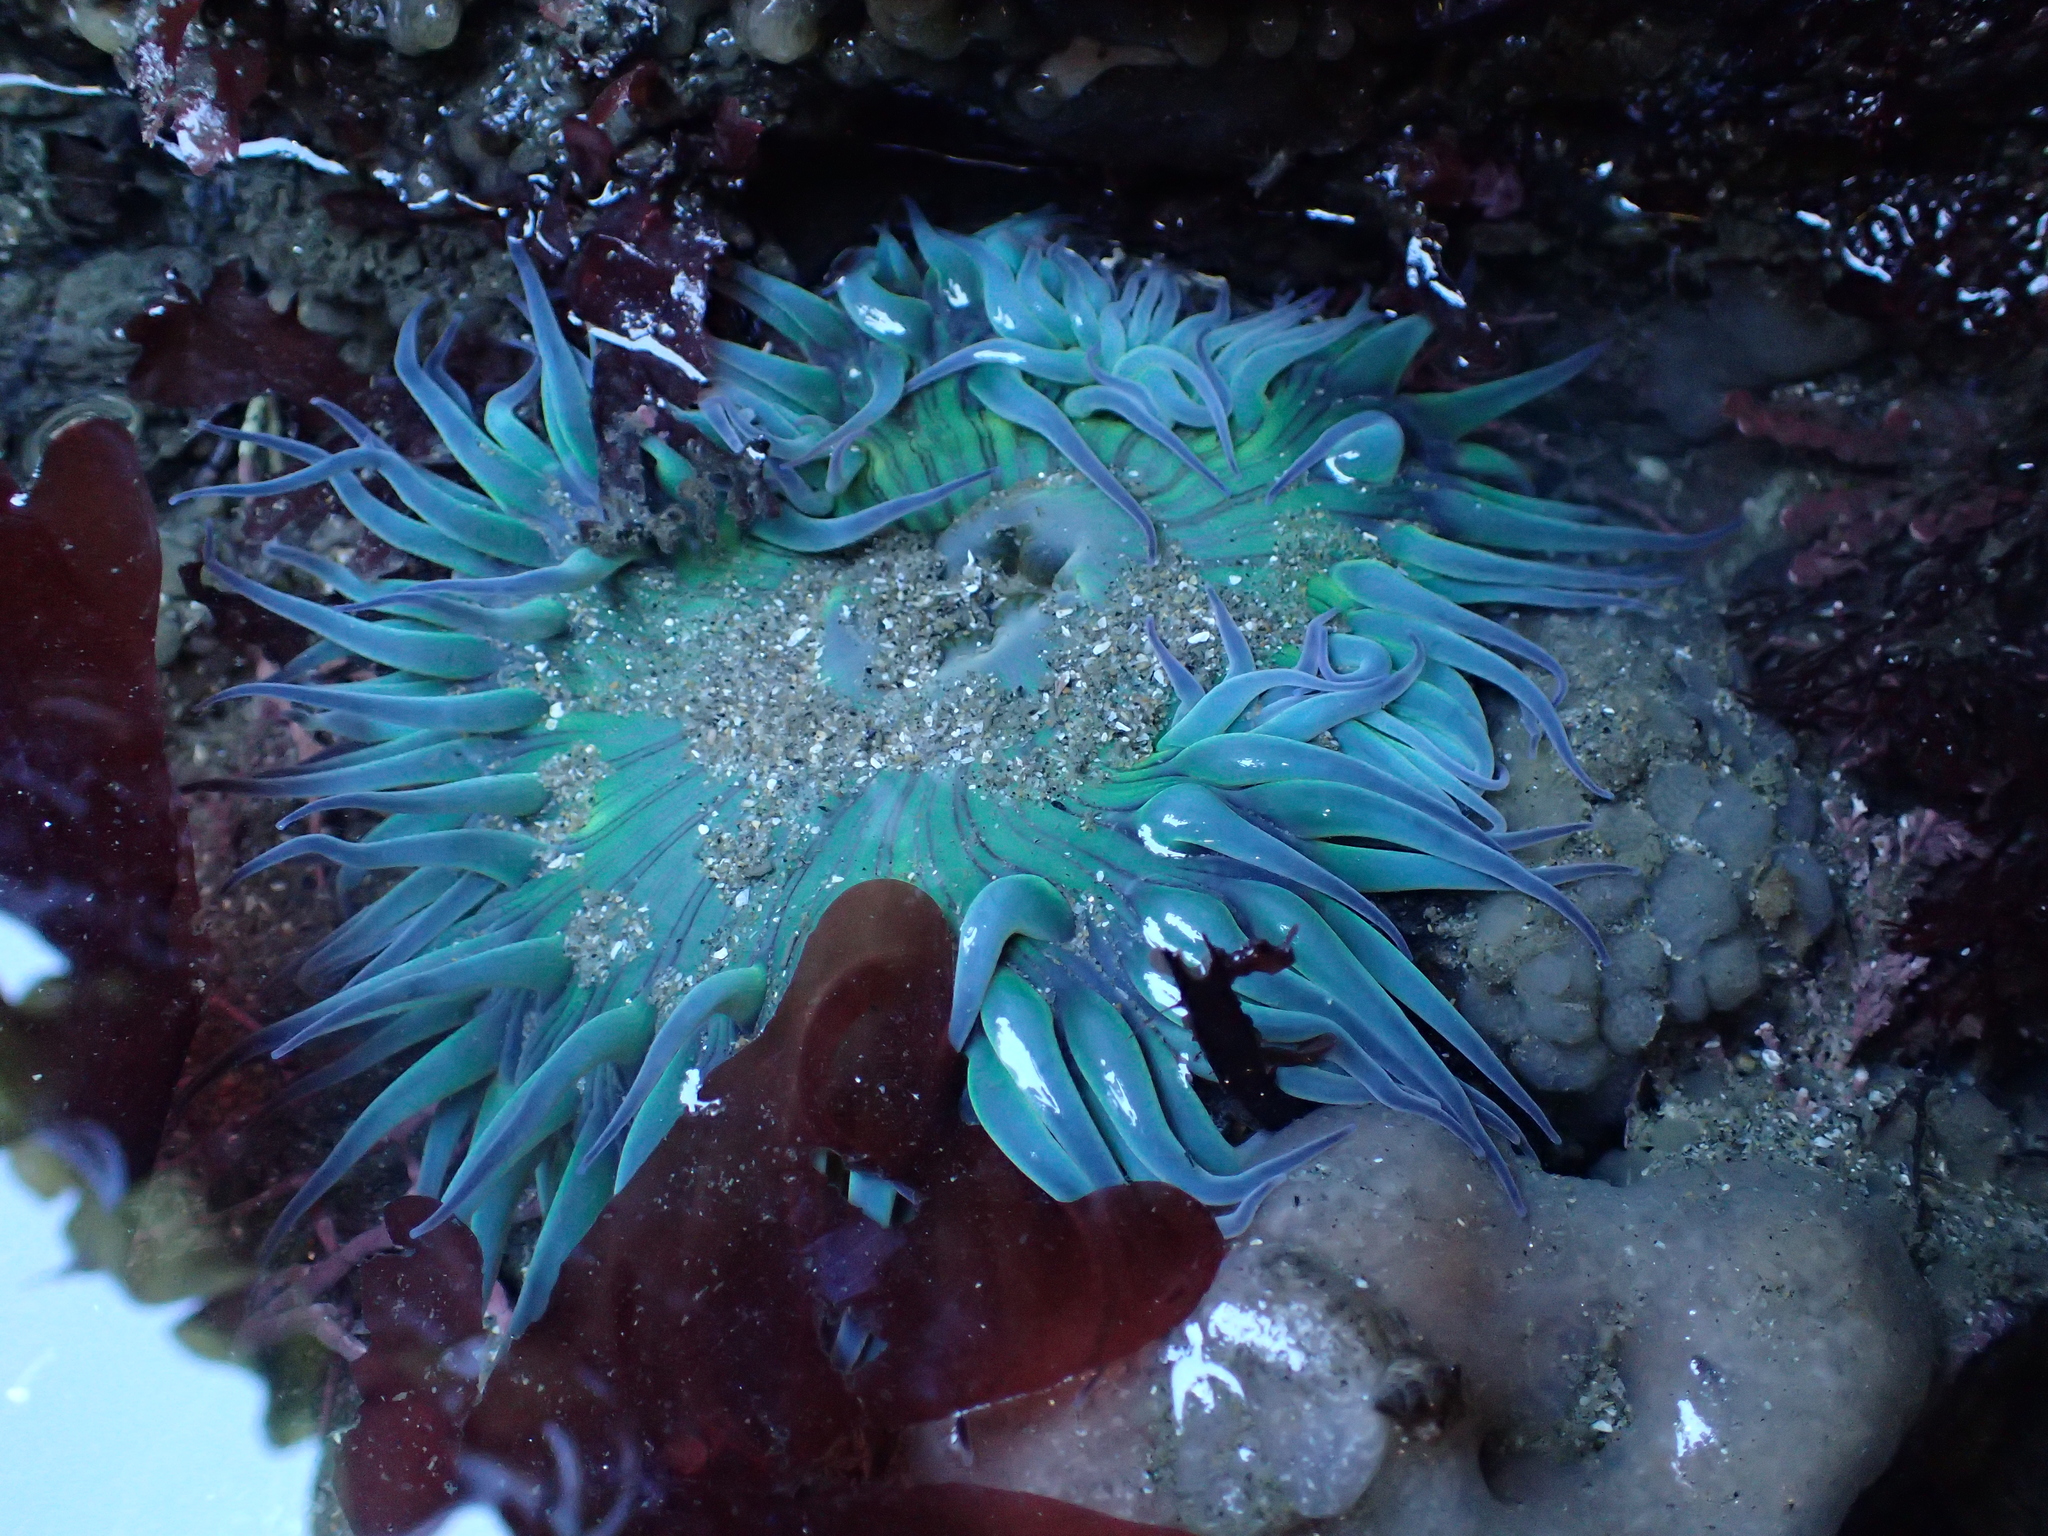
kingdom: Animalia
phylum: Cnidaria
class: Anthozoa
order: Actiniaria
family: Actiniidae
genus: Anthopleura
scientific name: Anthopleura sola
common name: Sun anemone
